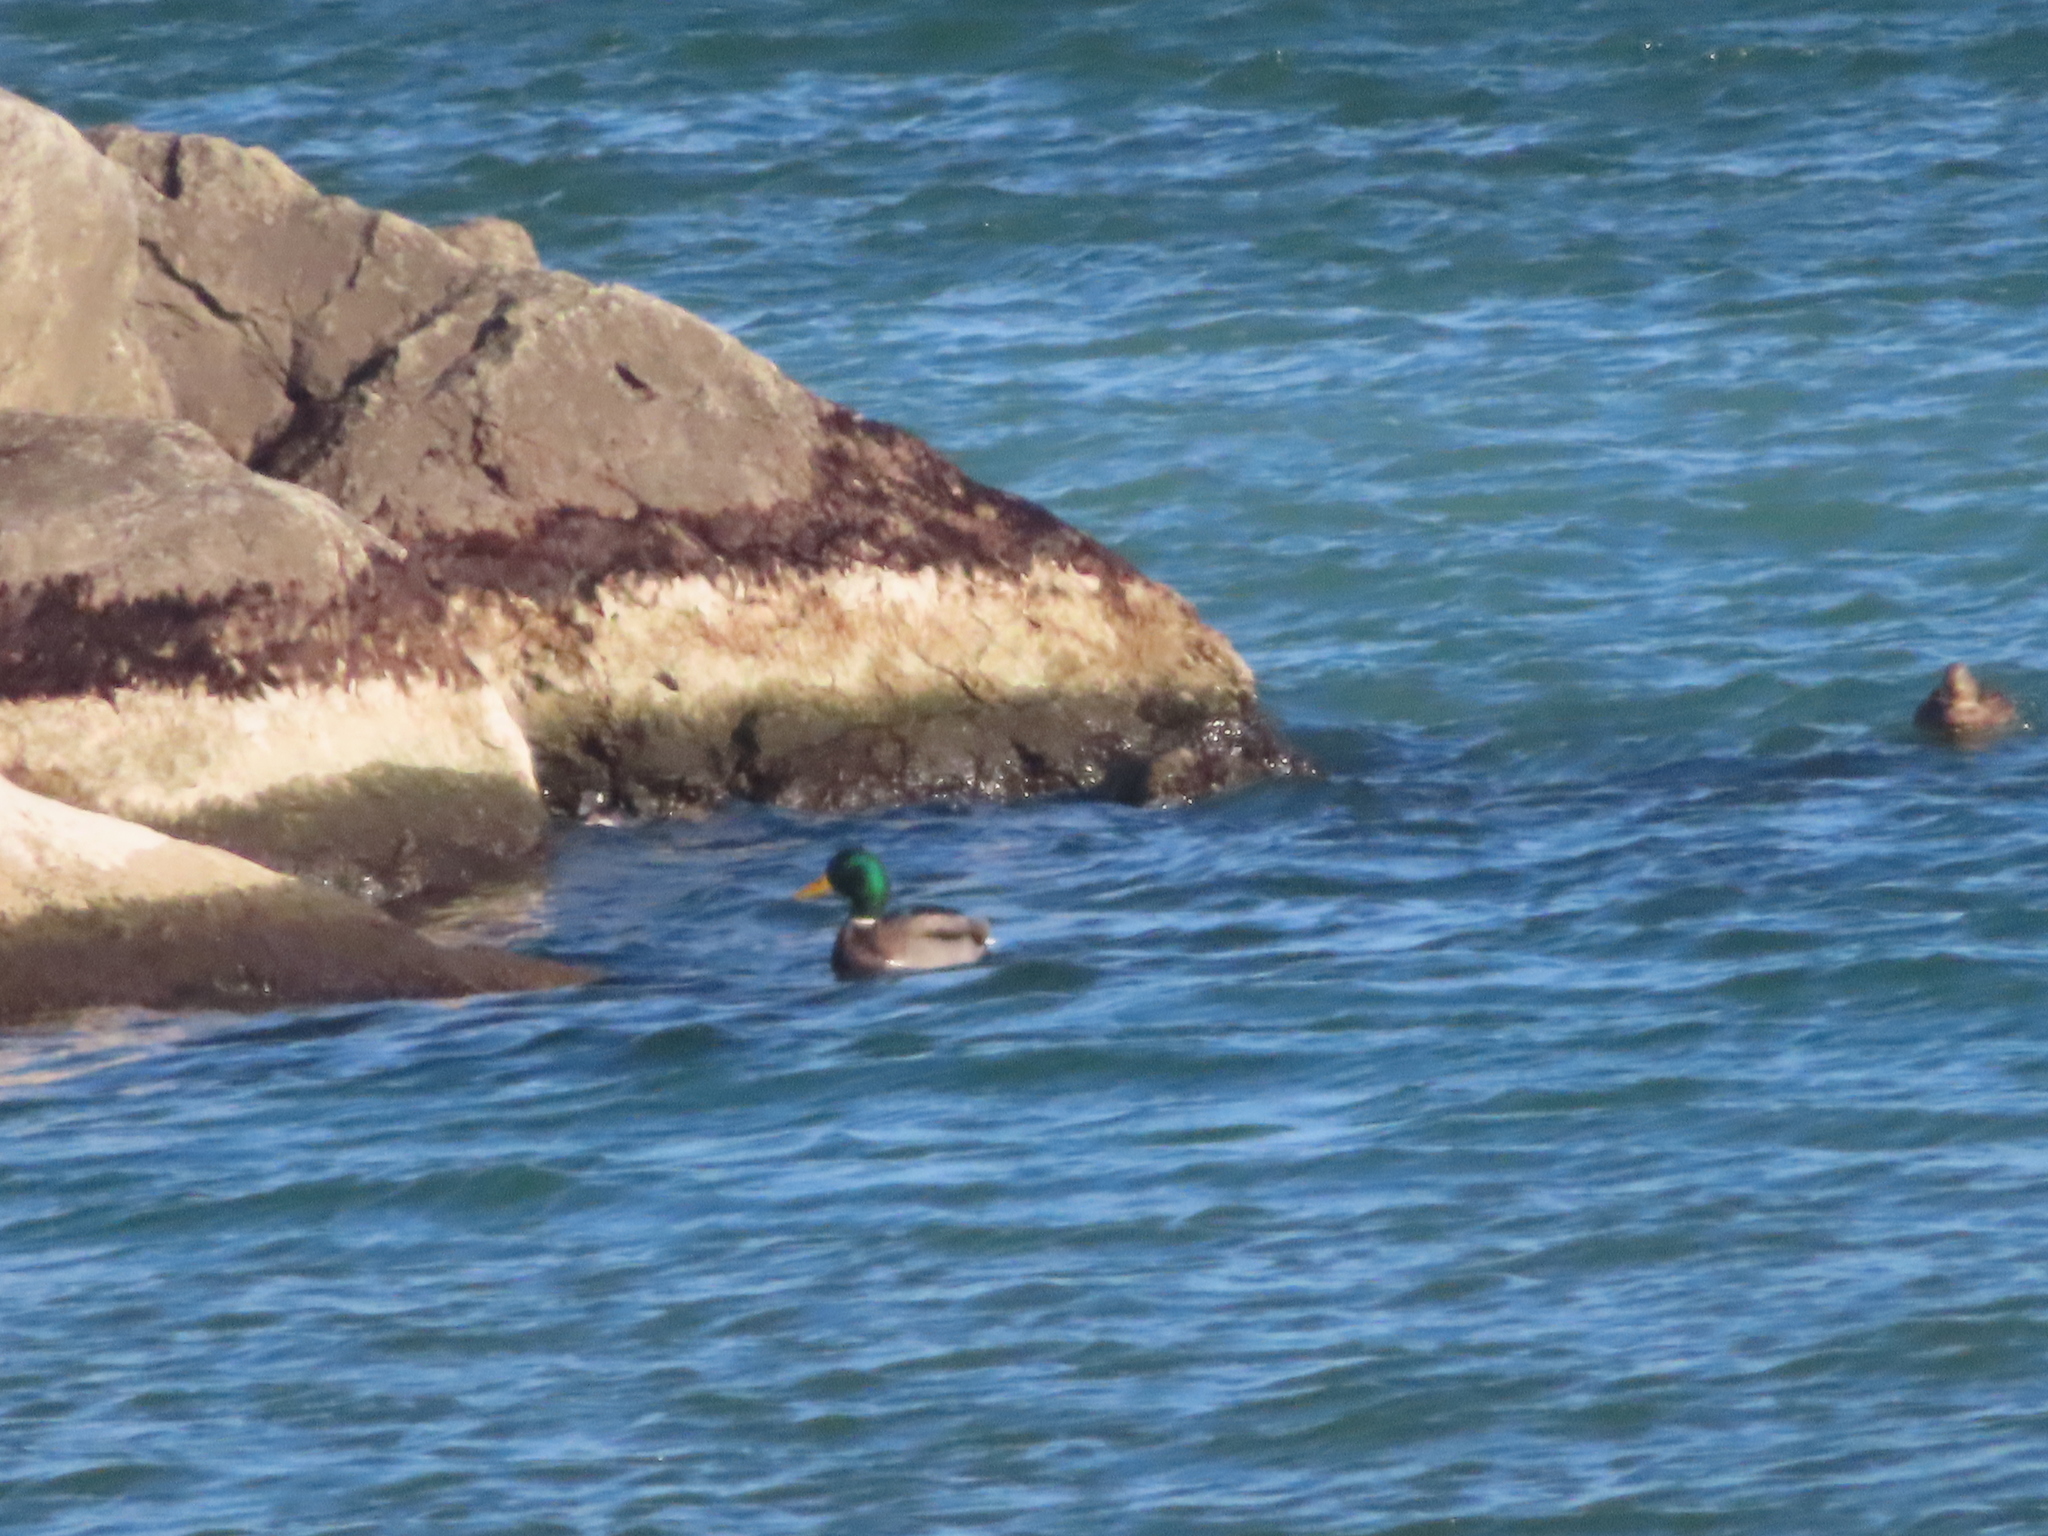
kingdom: Animalia
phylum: Chordata
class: Aves
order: Anseriformes
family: Anatidae
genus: Anas
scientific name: Anas platyrhynchos
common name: Mallard
